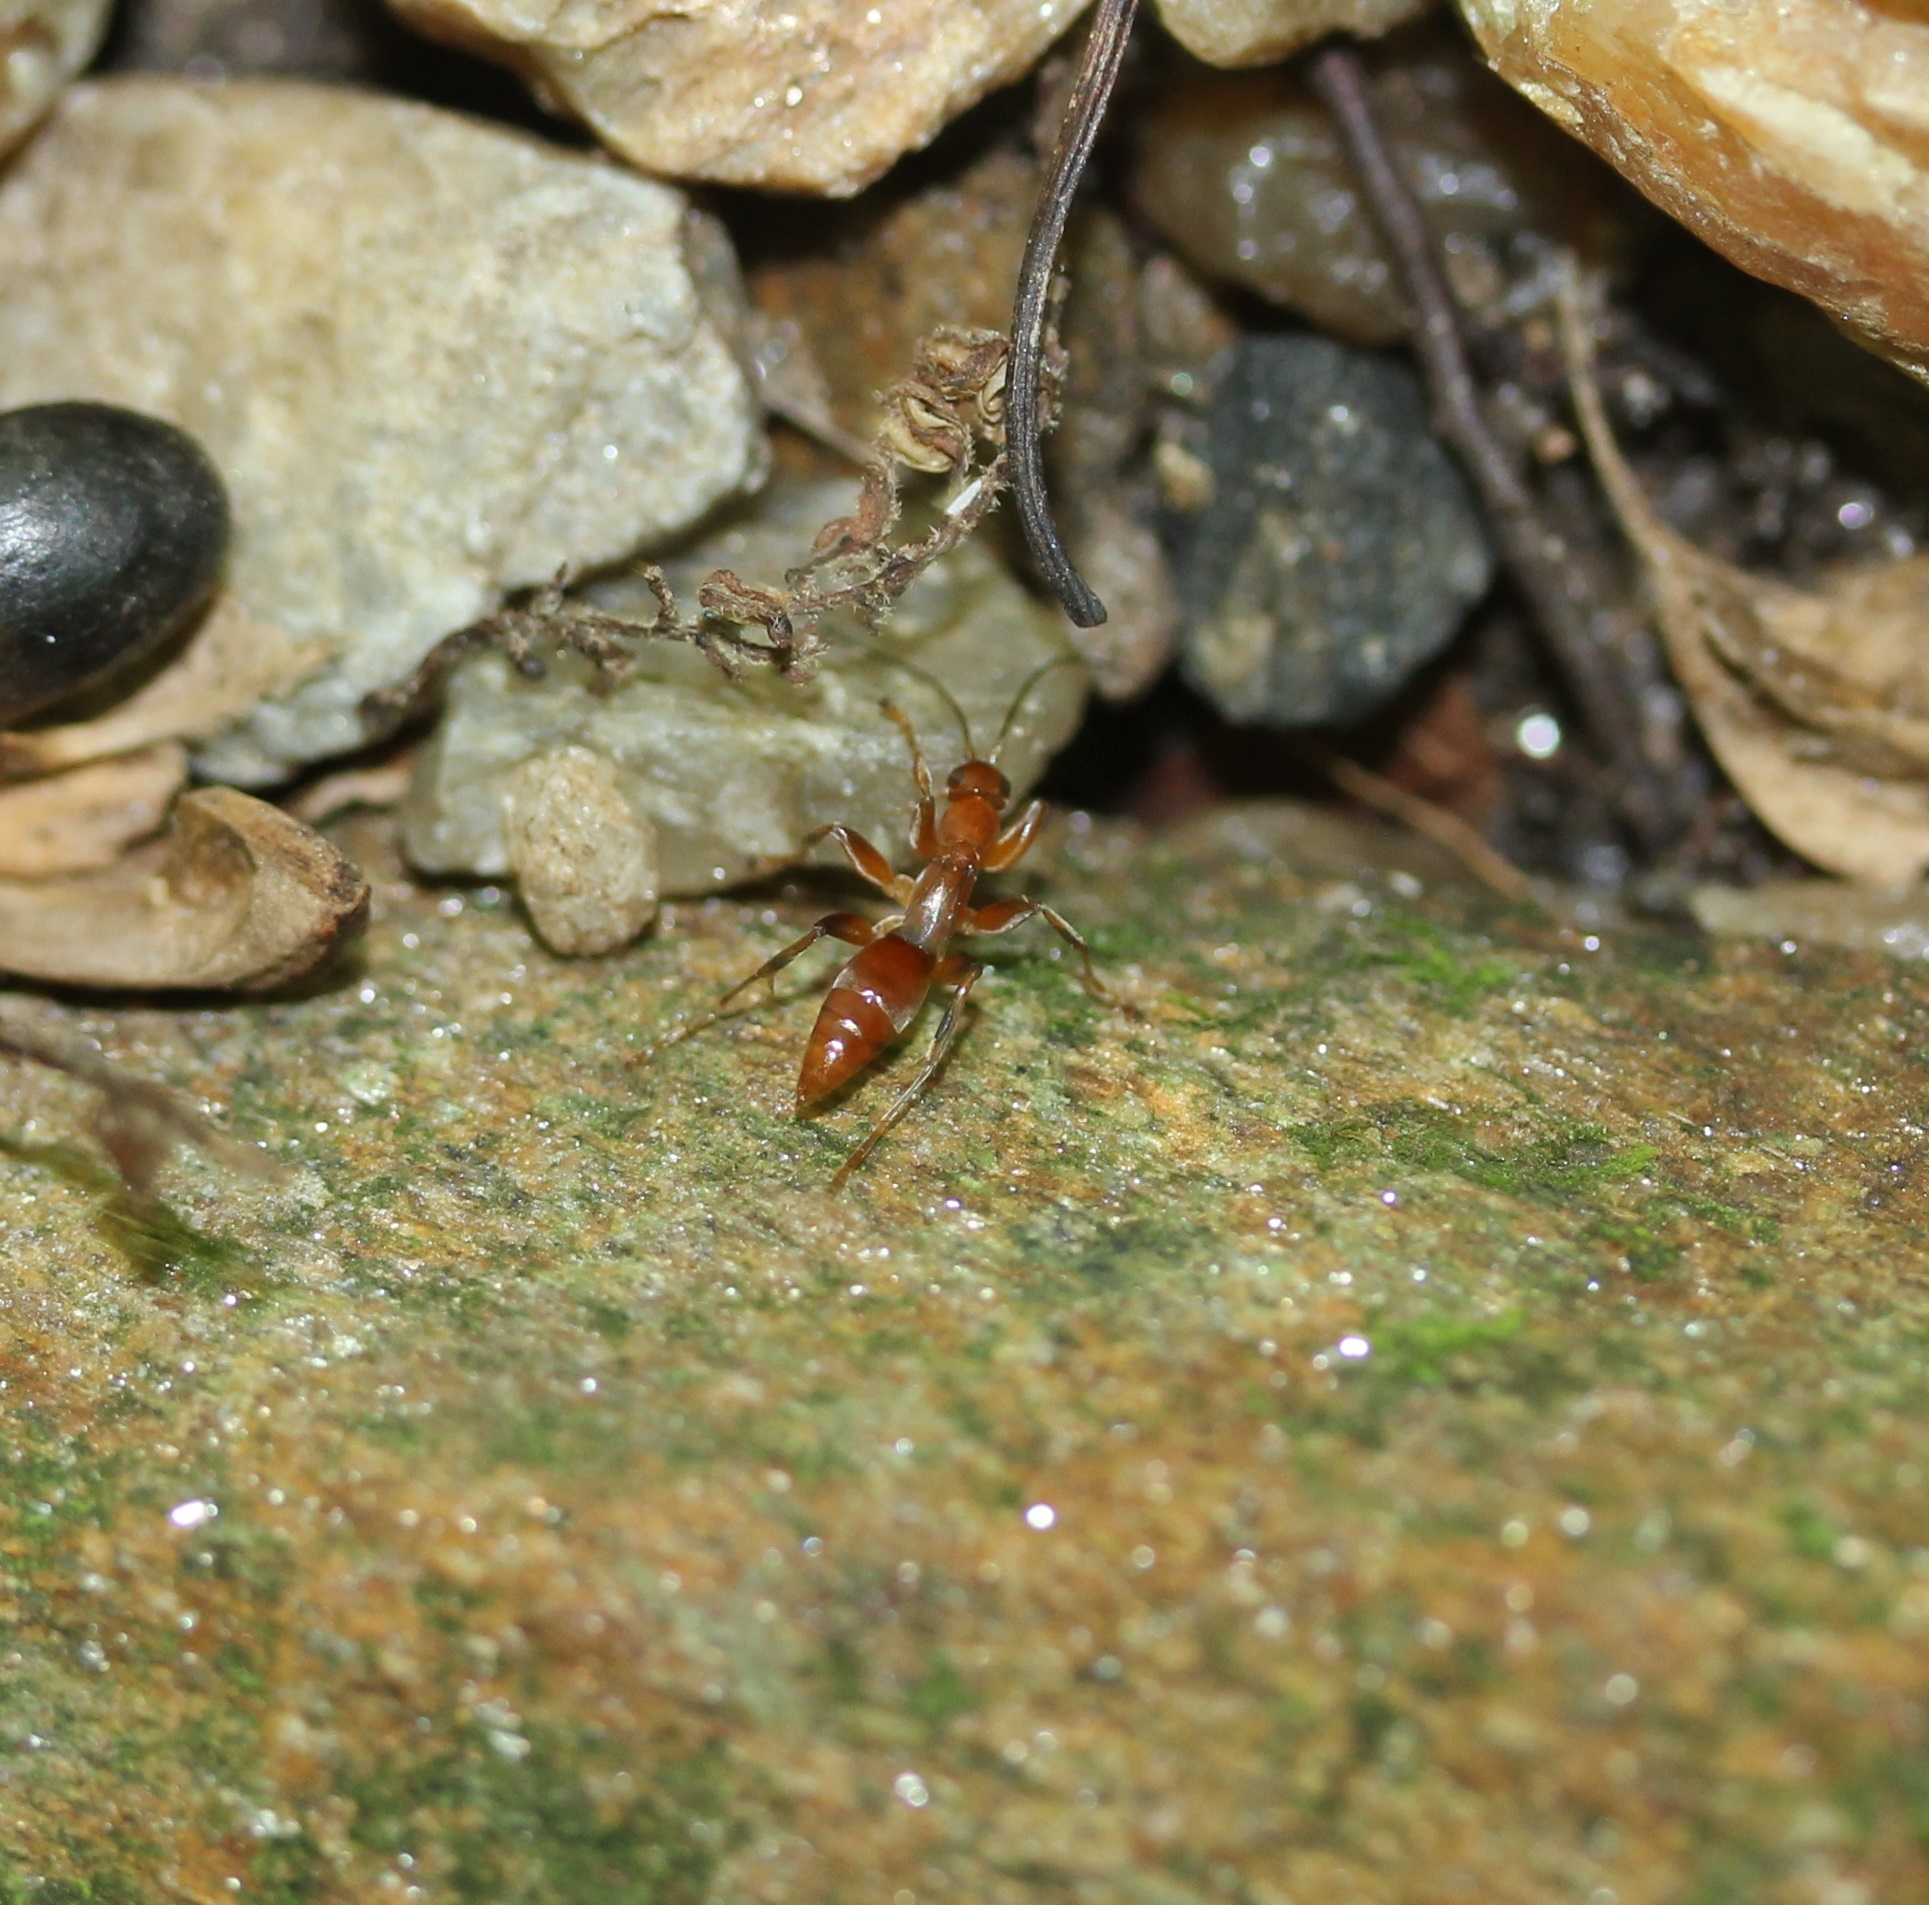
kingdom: Animalia
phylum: Arthropoda
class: Insecta
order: Hymenoptera
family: Rhopalosomatidae
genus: Olixon
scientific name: Olixon banksii
